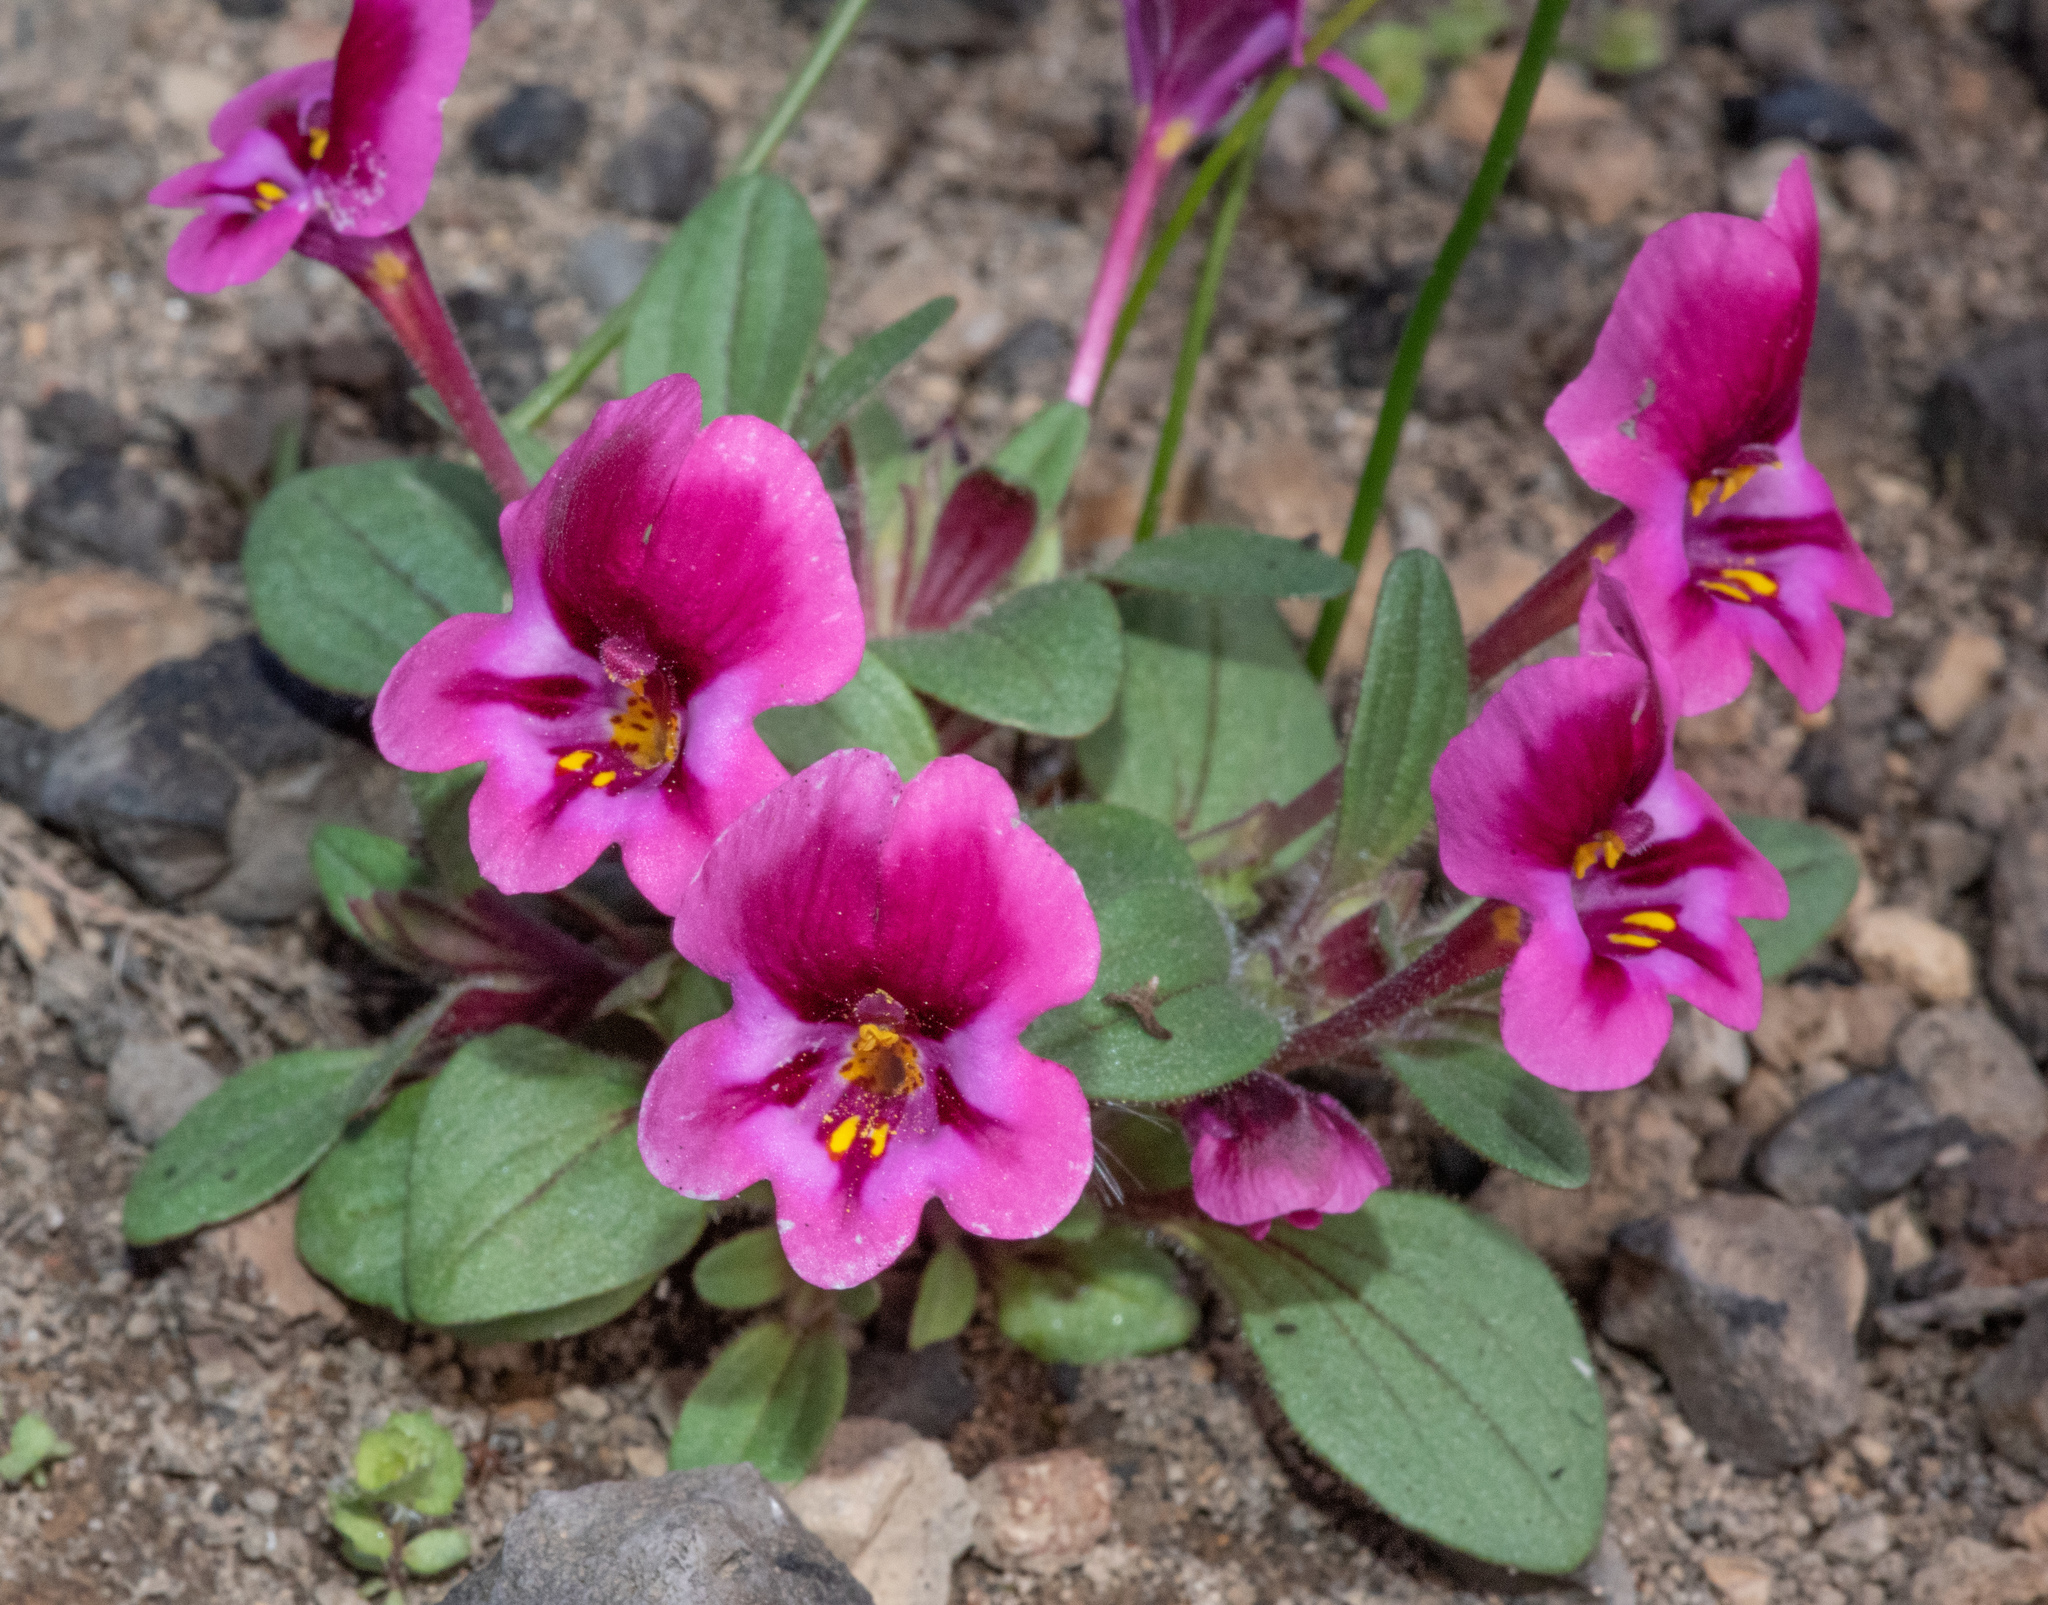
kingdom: Plantae
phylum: Tracheophyta
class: Magnoliopsida
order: Lamiales
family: Phrymaceae
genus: Diplacus
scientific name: Diplacus kelloggii
